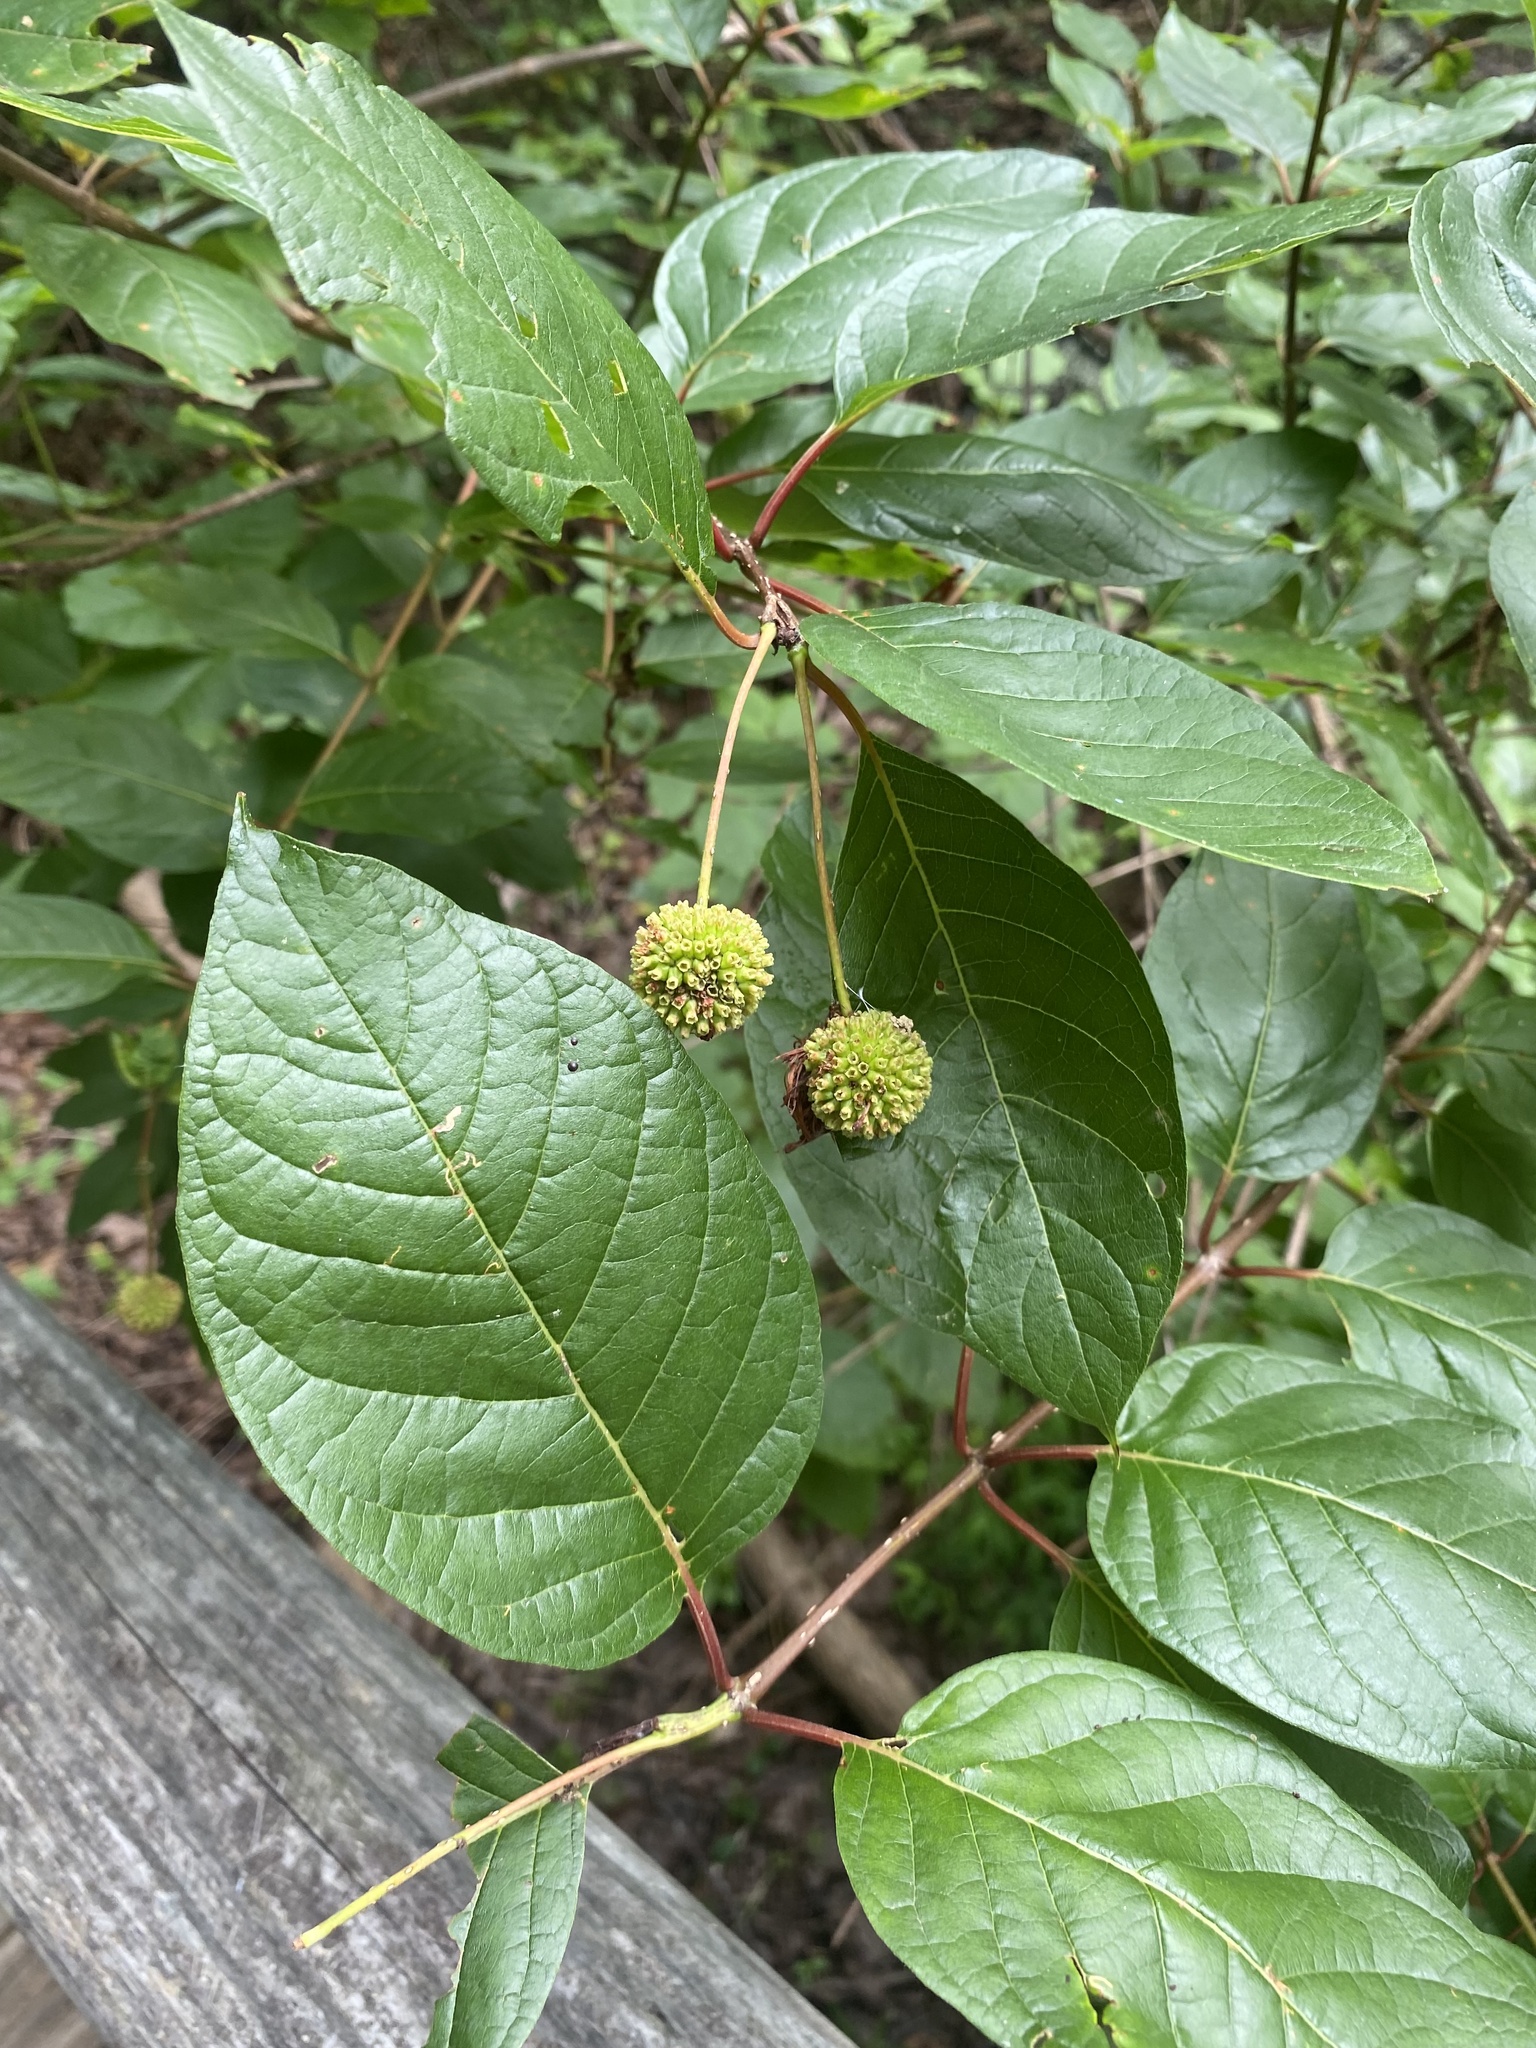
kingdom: Plantae
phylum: Tracheophyta
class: Magnoliopsida
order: Gentianales
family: Rubiaceae
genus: Cephalanthus
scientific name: Cephalanthus occidentalis
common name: Button-willow
